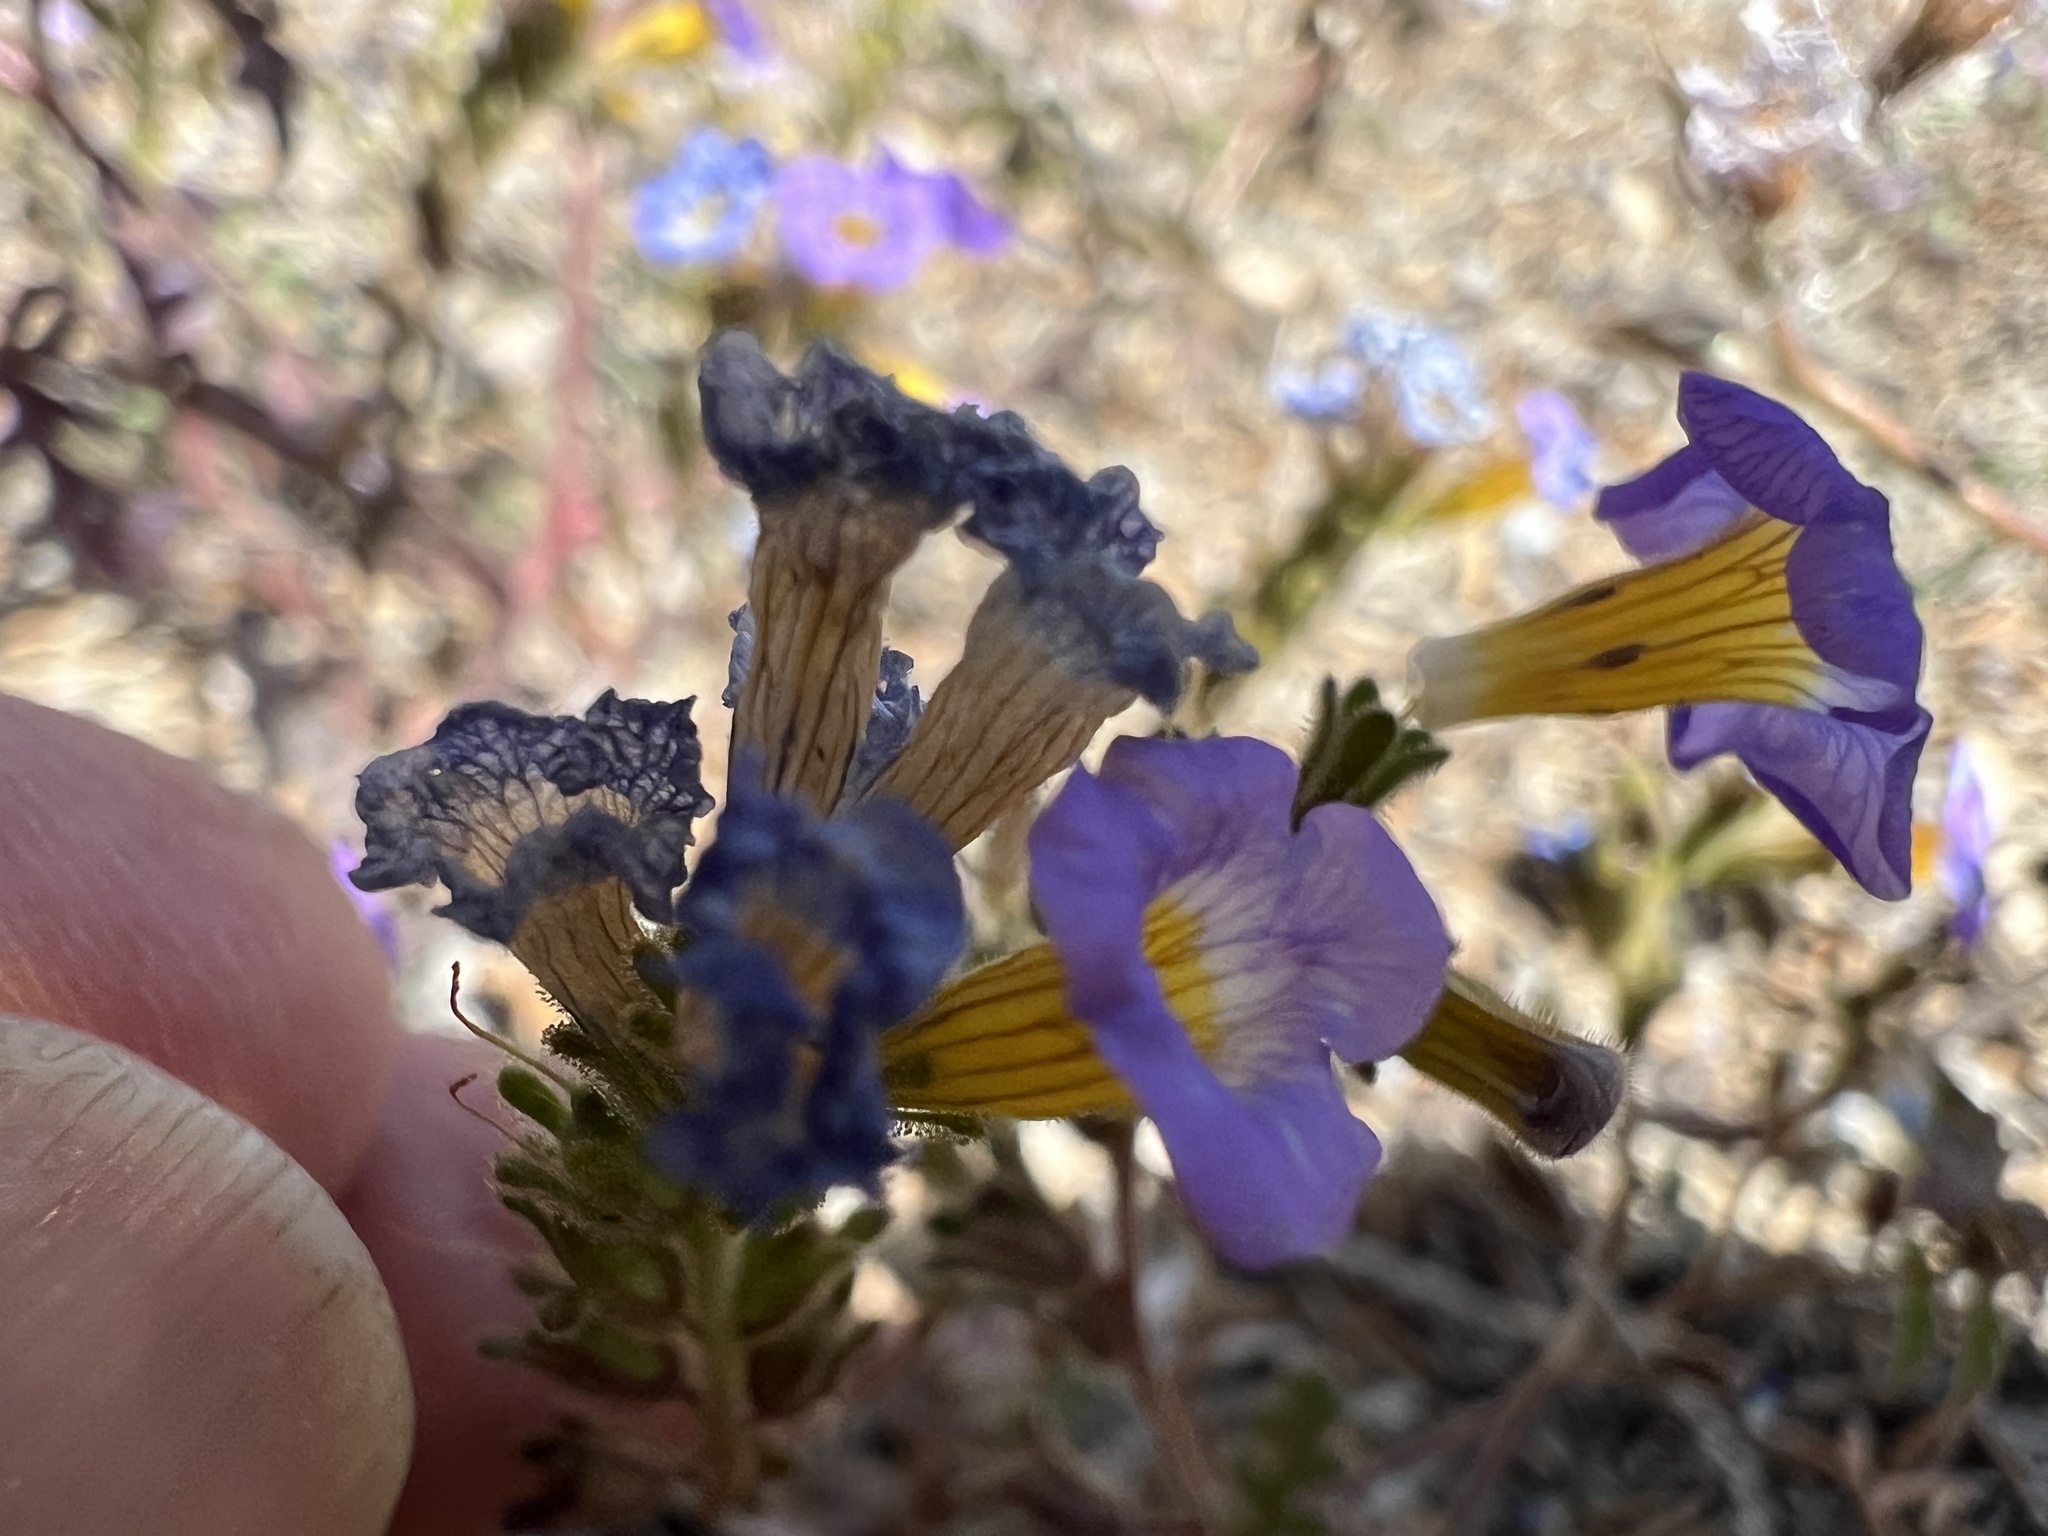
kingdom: Plantae
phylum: Tracheophyta
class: Magnoliopsida
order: Boraginales
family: Hydrophyllaceae
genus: Phacelia
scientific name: Phacelia fremontii
